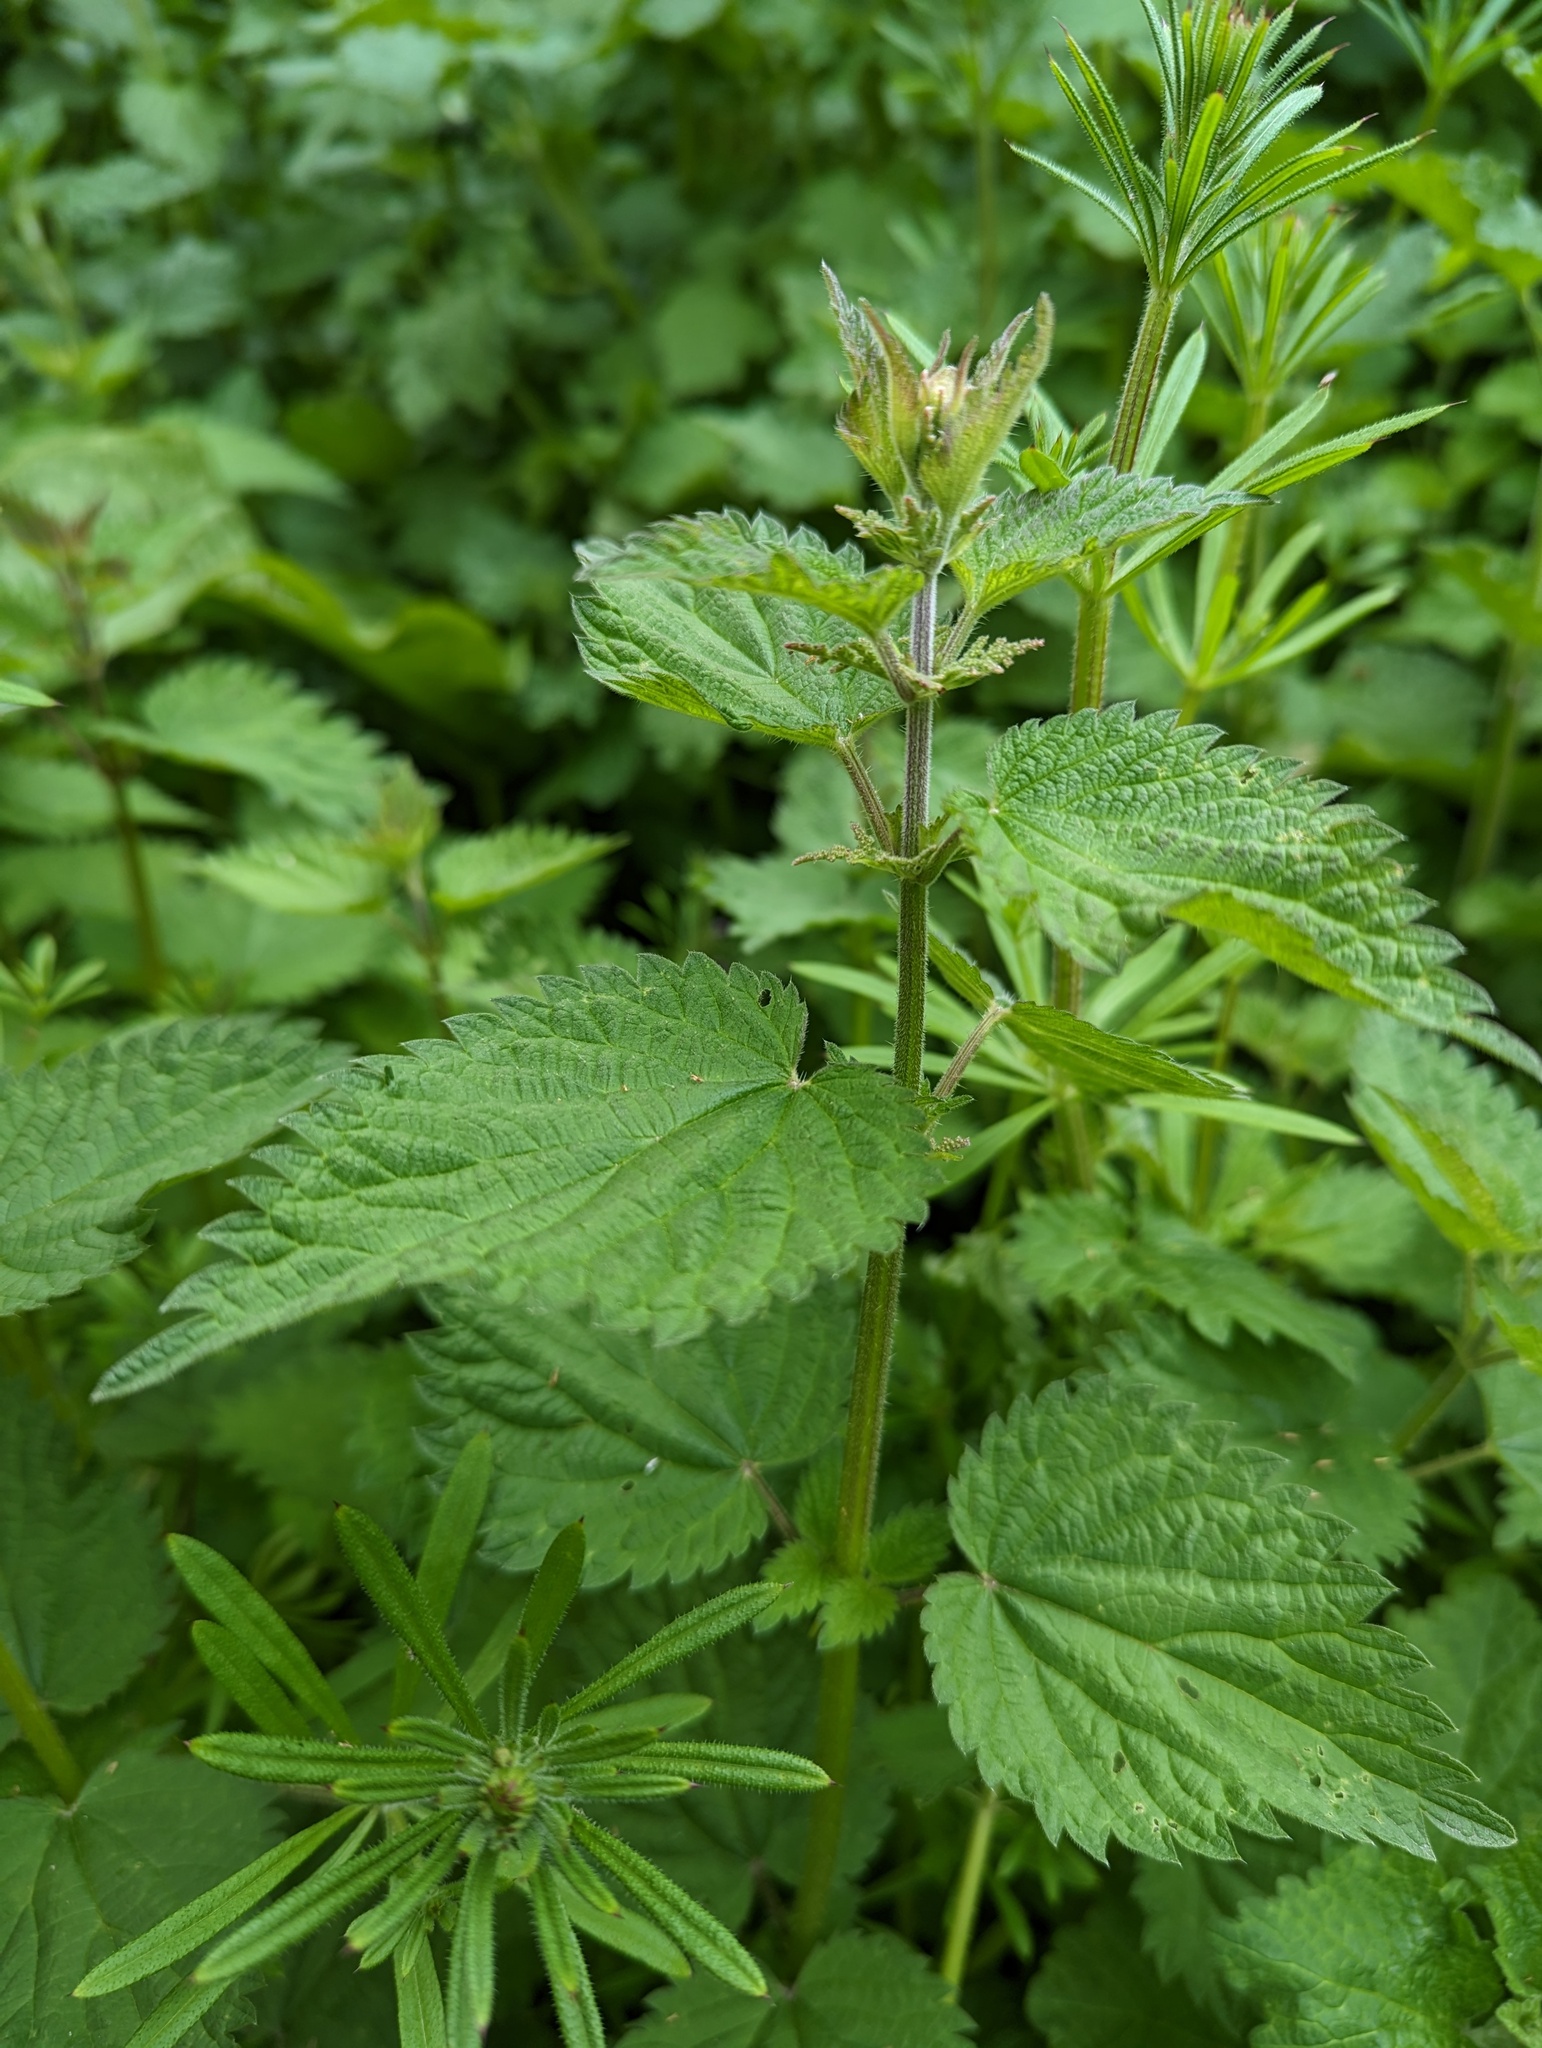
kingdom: Plantae
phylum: Tracheophyta
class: Magnoliopsida
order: Rosales
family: Urticaceae
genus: Urtica
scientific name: Urtica dioica
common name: Common nettle
